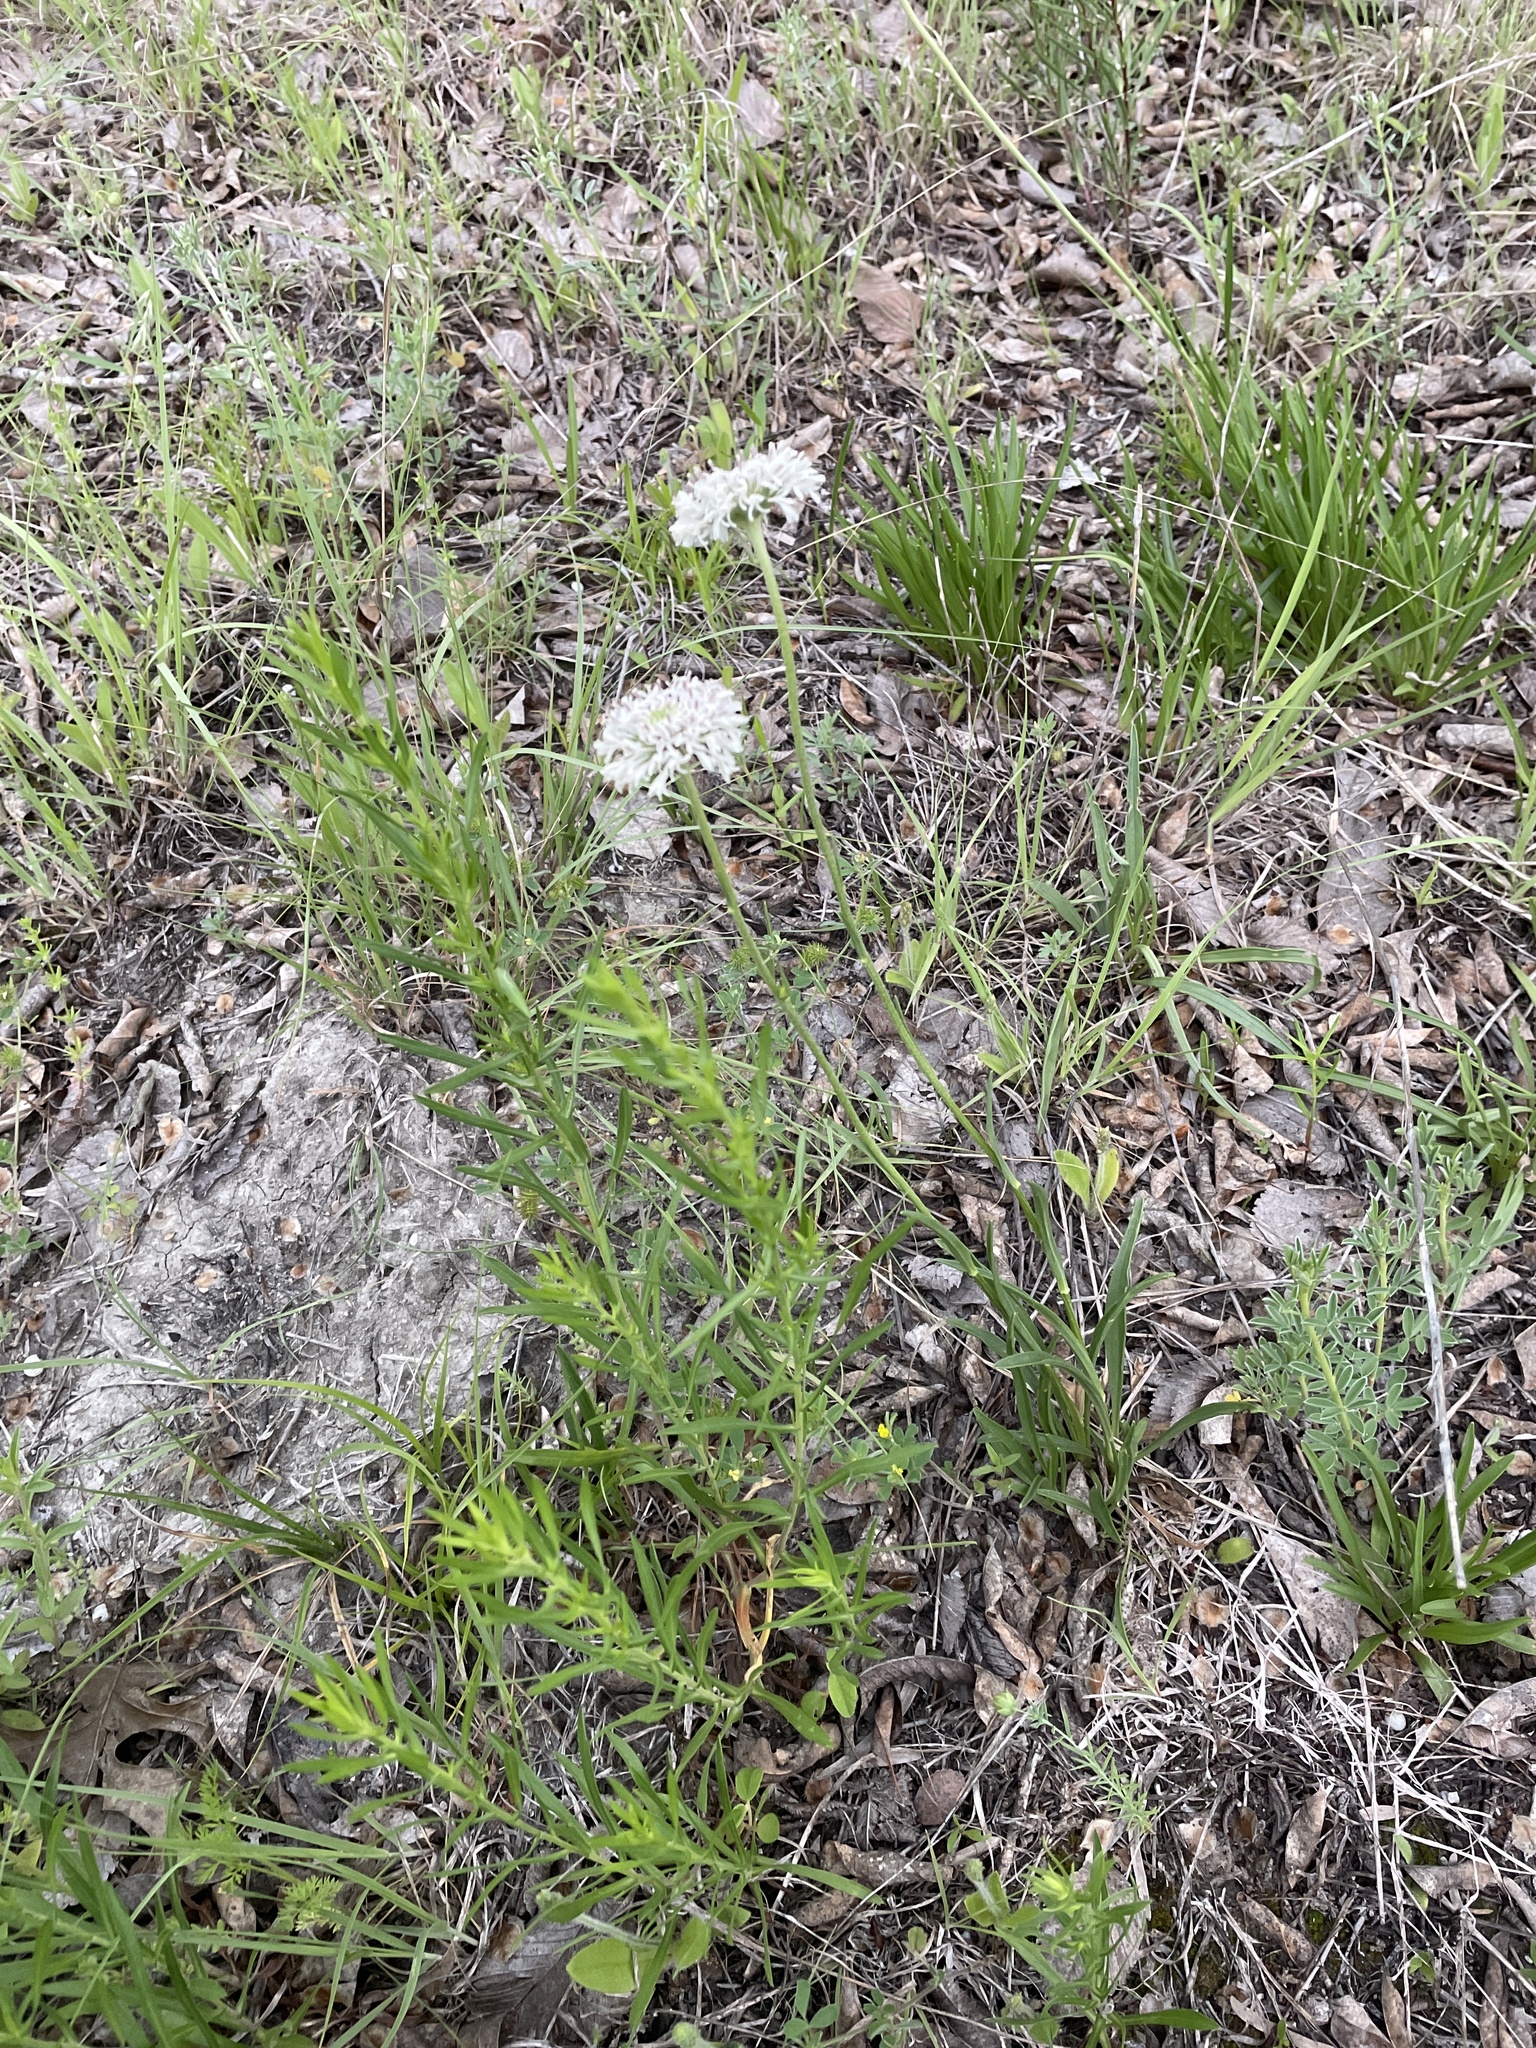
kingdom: Plantae
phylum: Tracheophyta
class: Magnoliopsida
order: Asterales
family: Asteraceae
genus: Marshallia
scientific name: Marshallia caespitosa
